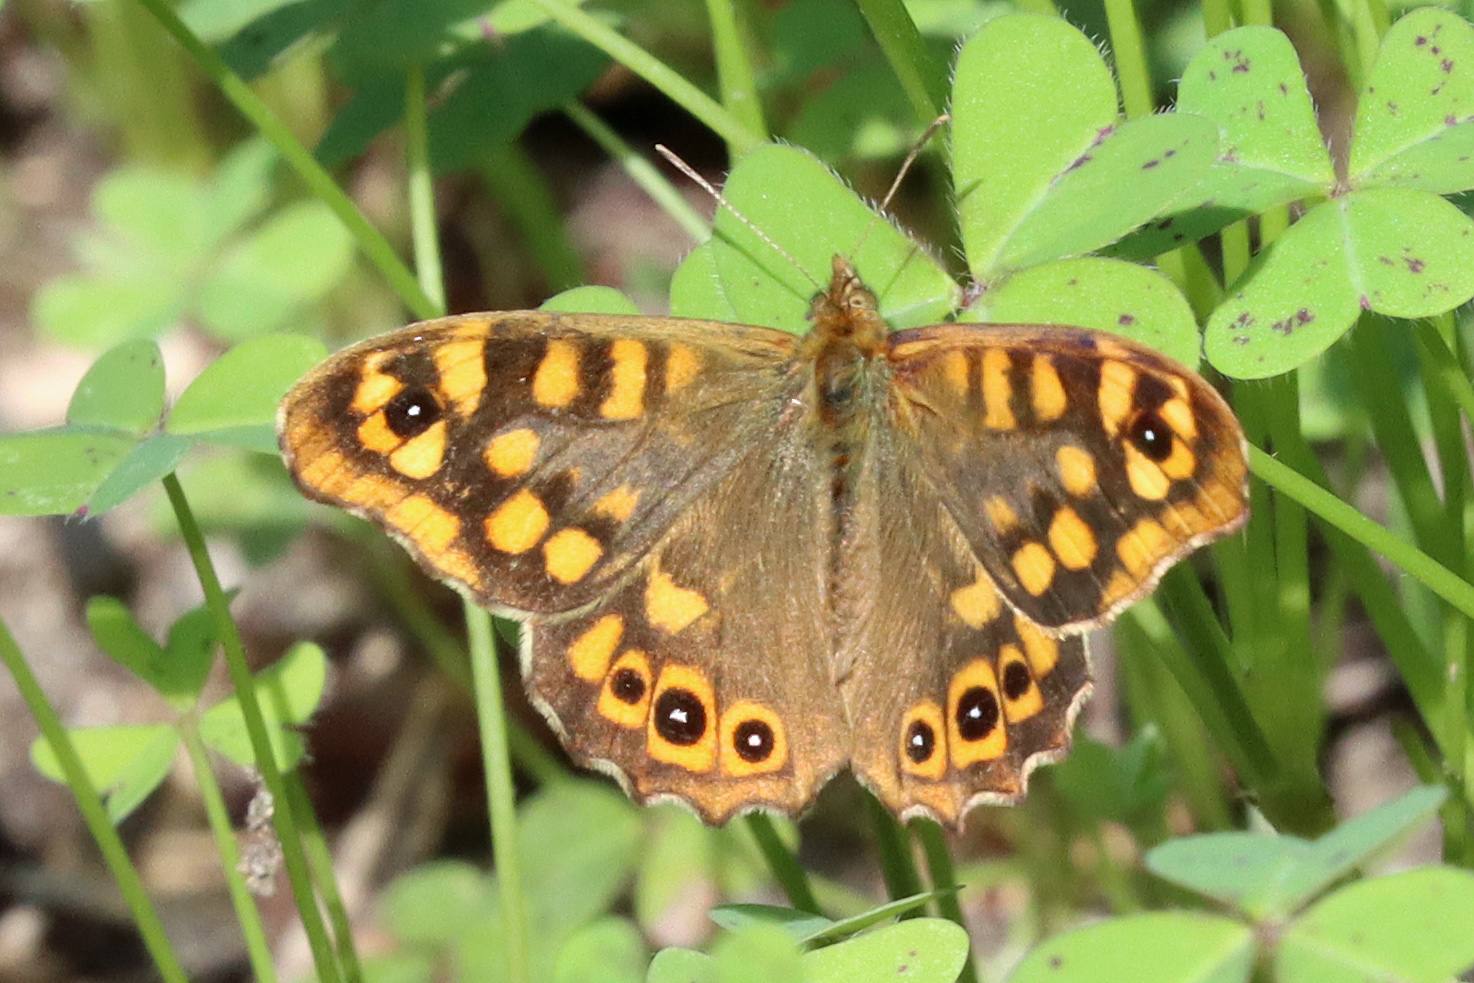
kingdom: Animalia
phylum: Arthropoda
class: Insecta
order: Lepidoptera
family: Nymphalidae
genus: Pararge
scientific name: Pararge aegeria
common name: Speckled wood
